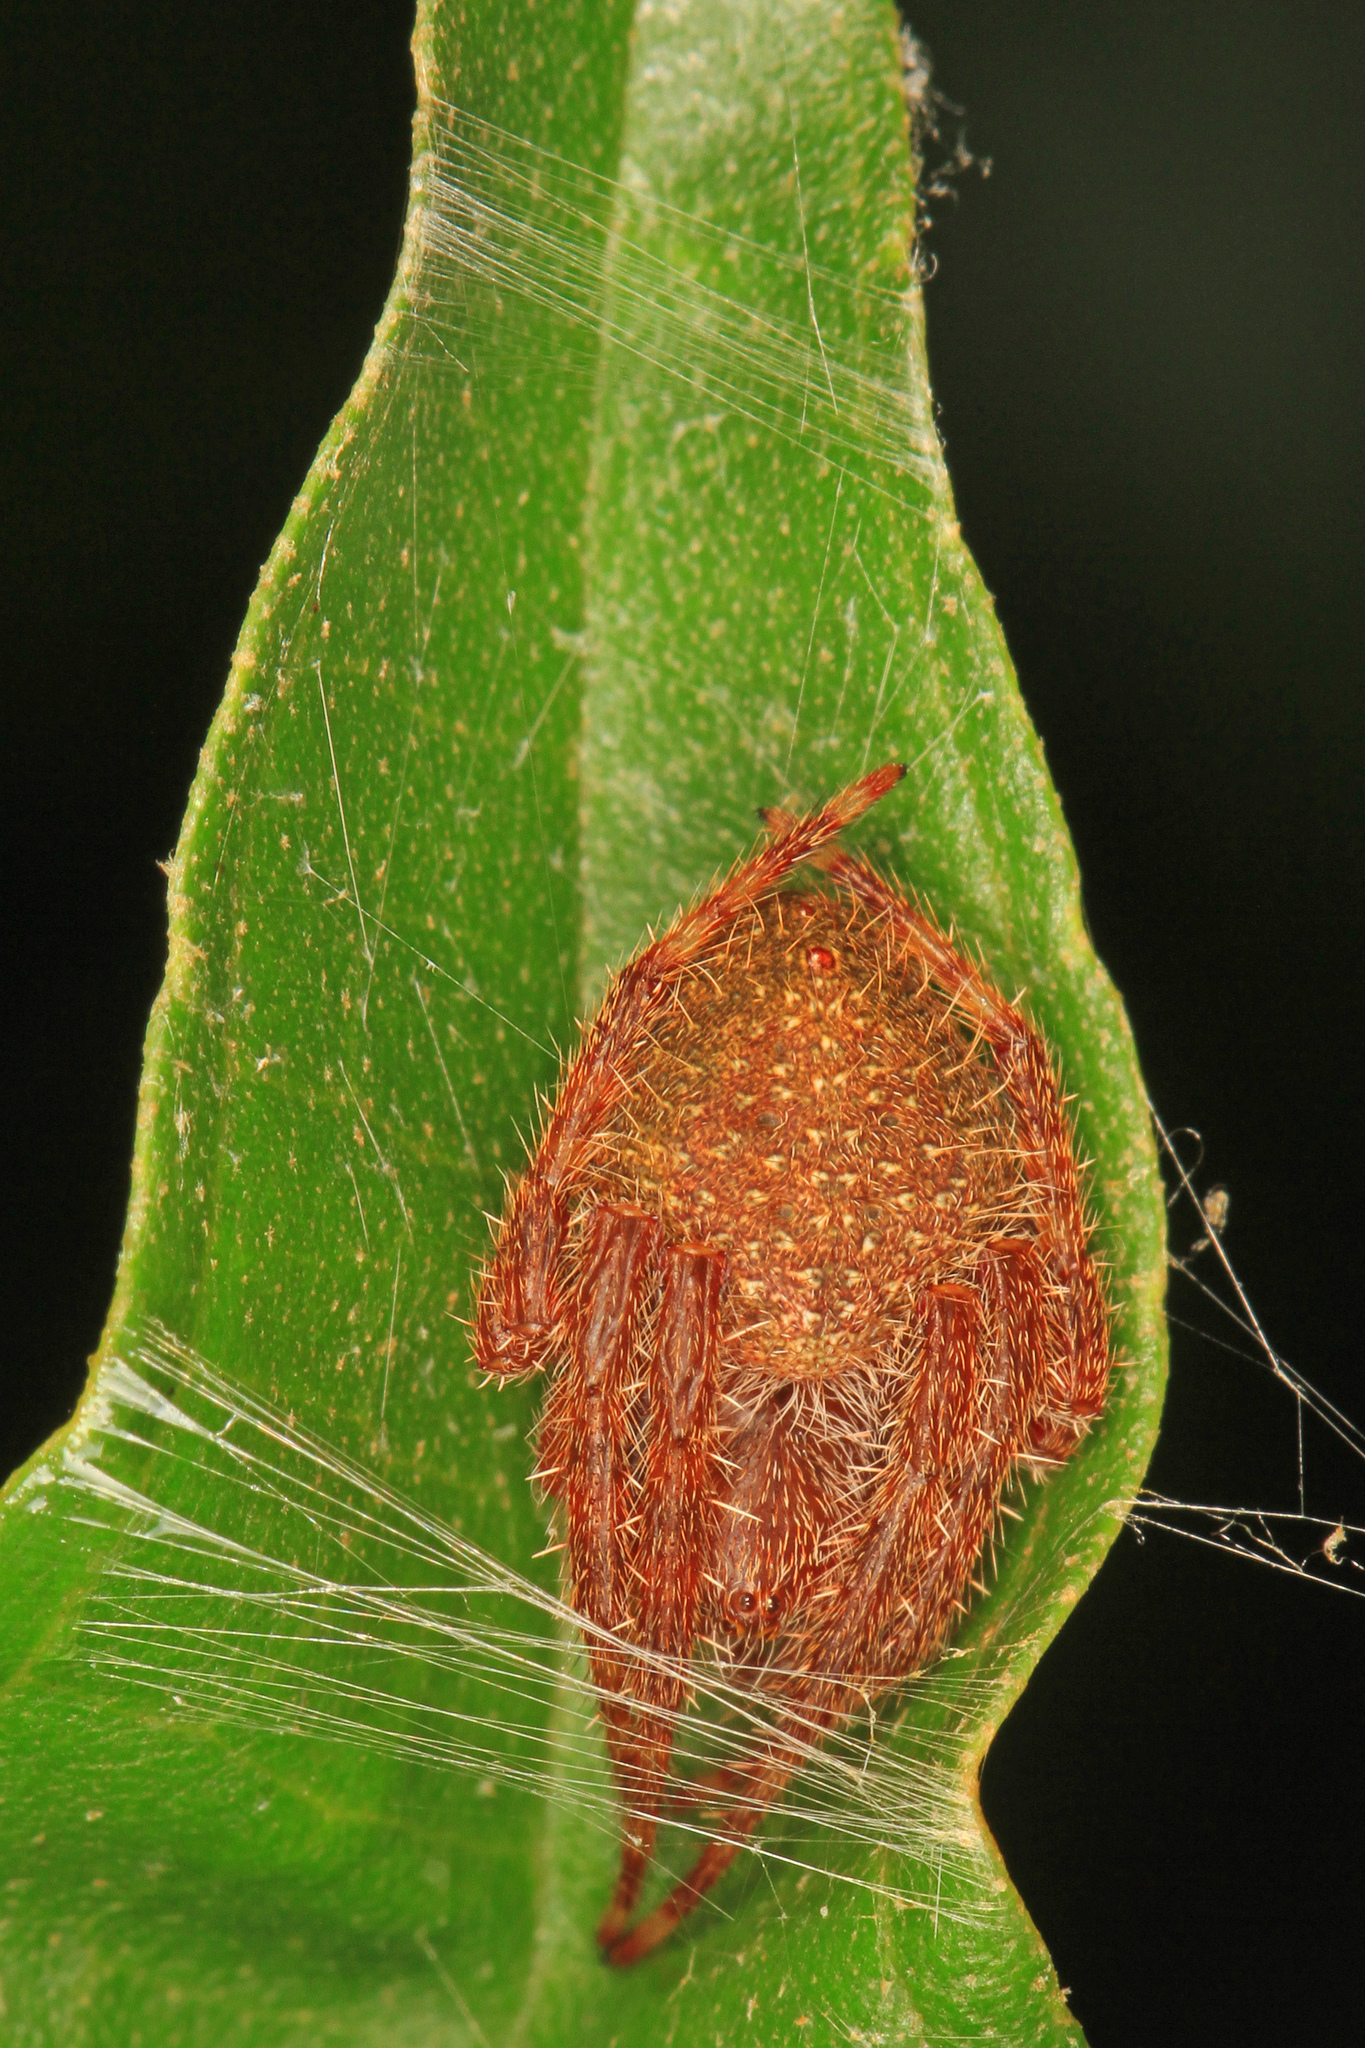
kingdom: Animalia
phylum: Arthropoda
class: Arachnida
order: Araneae
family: Araneidae
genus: Eriophora
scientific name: Eriophora ravilla
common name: Orb weavers
